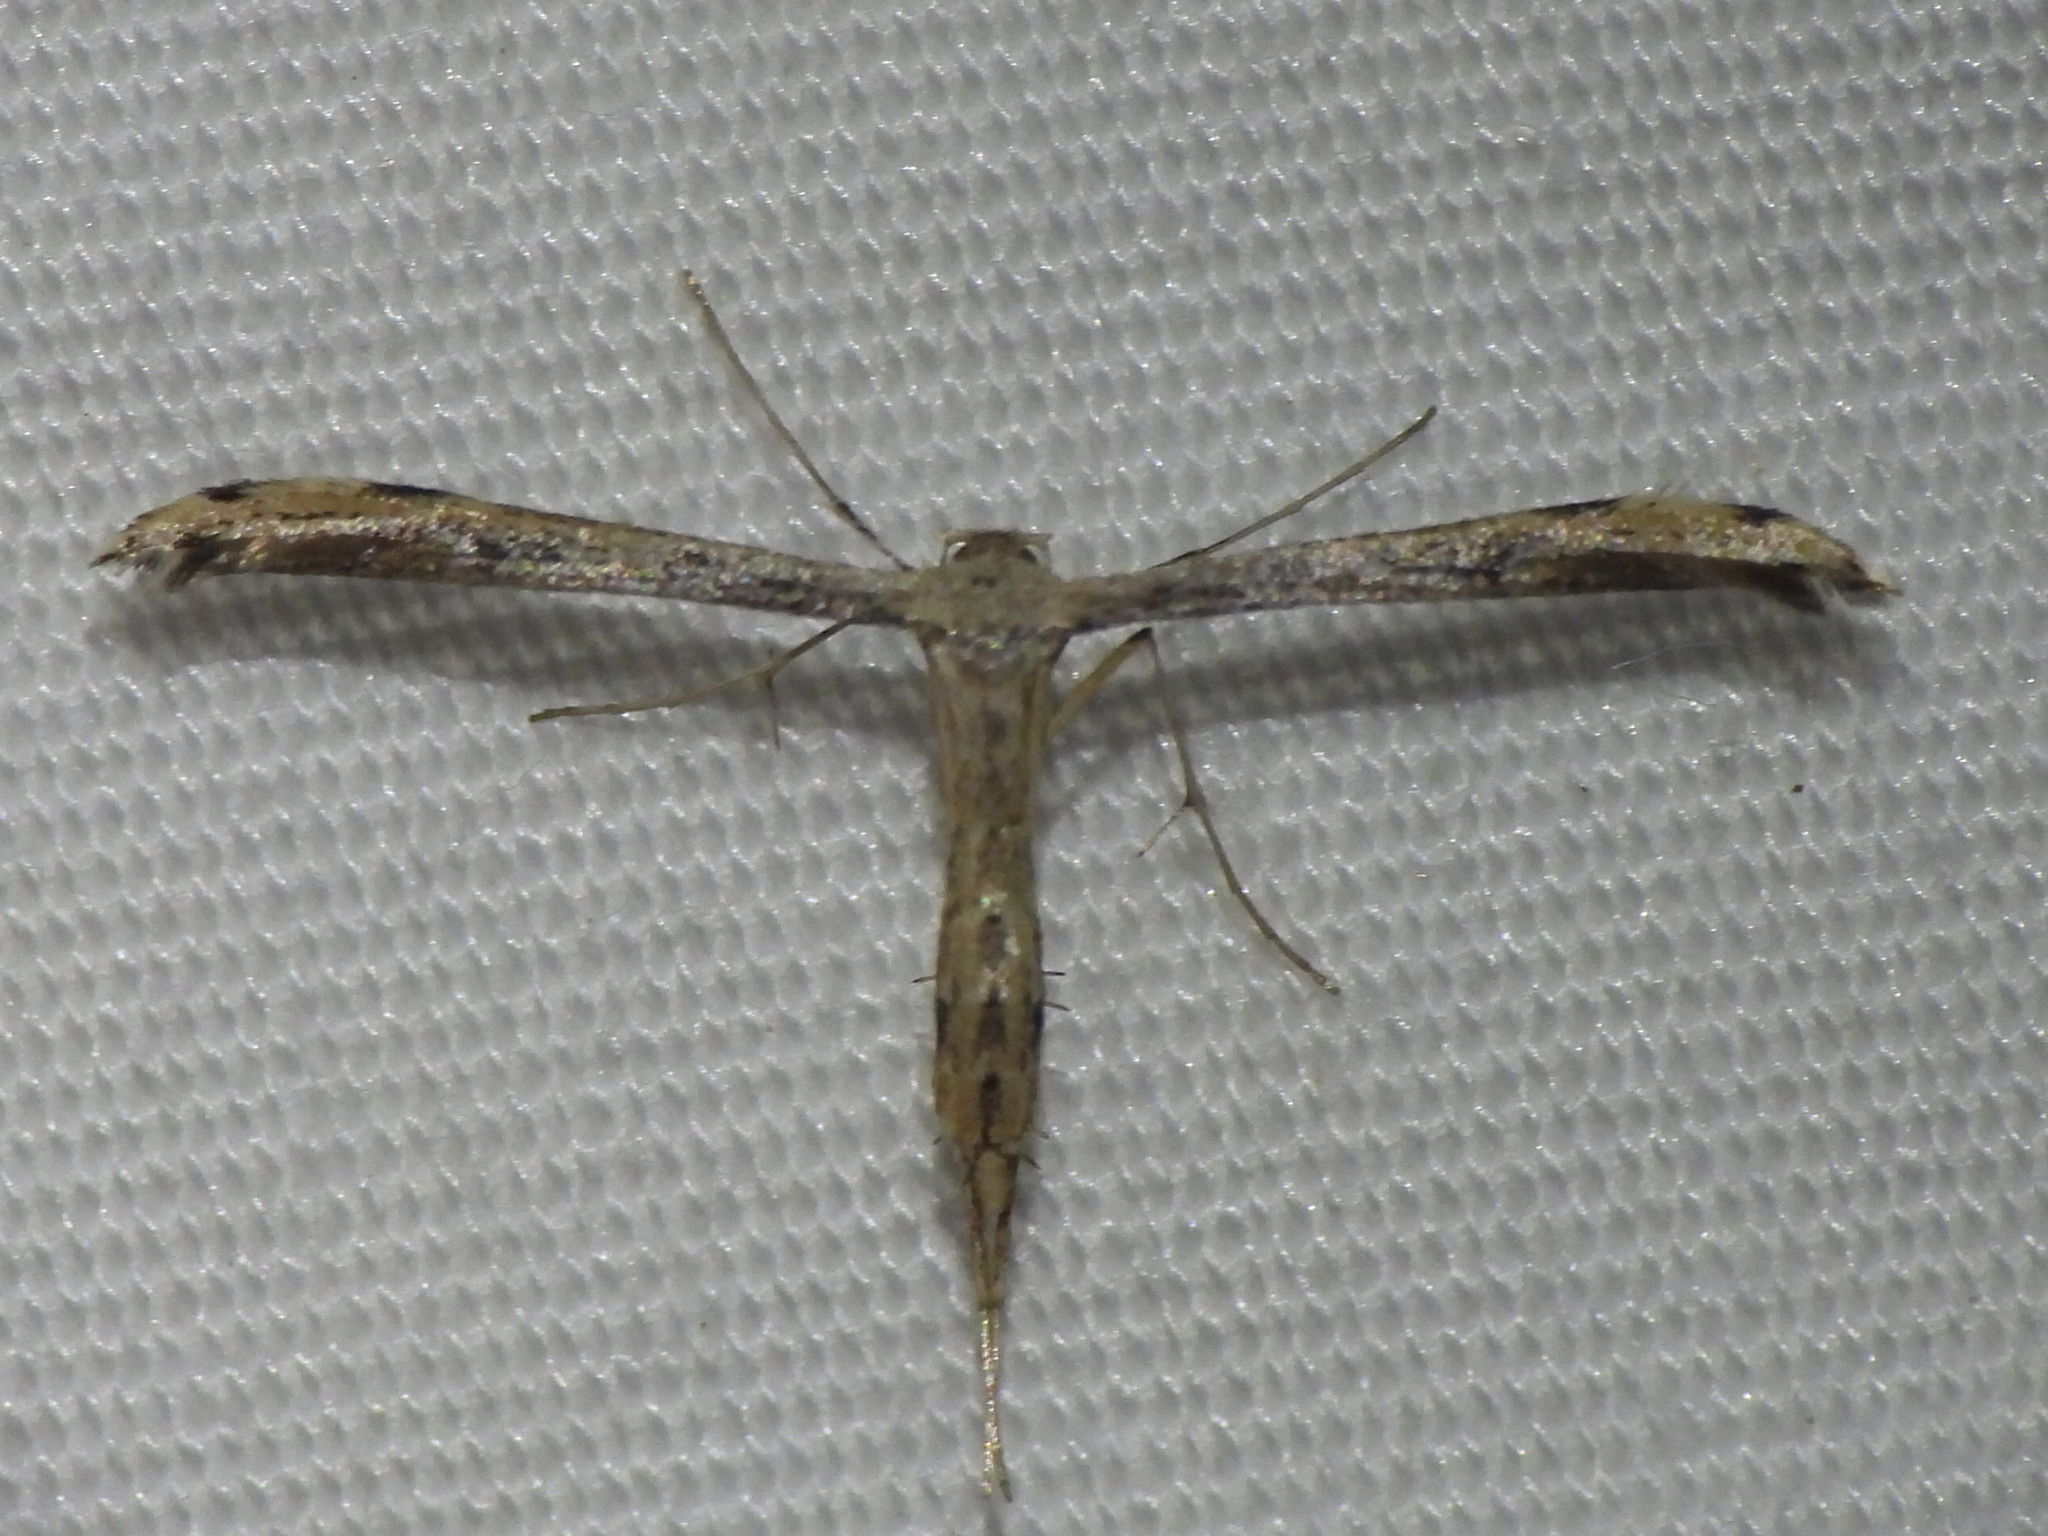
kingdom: Animalia
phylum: Arthropoda
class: Insecta
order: Lepidoptera
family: Pterophoridae
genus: Adaina
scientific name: Adaina ambrosiae
